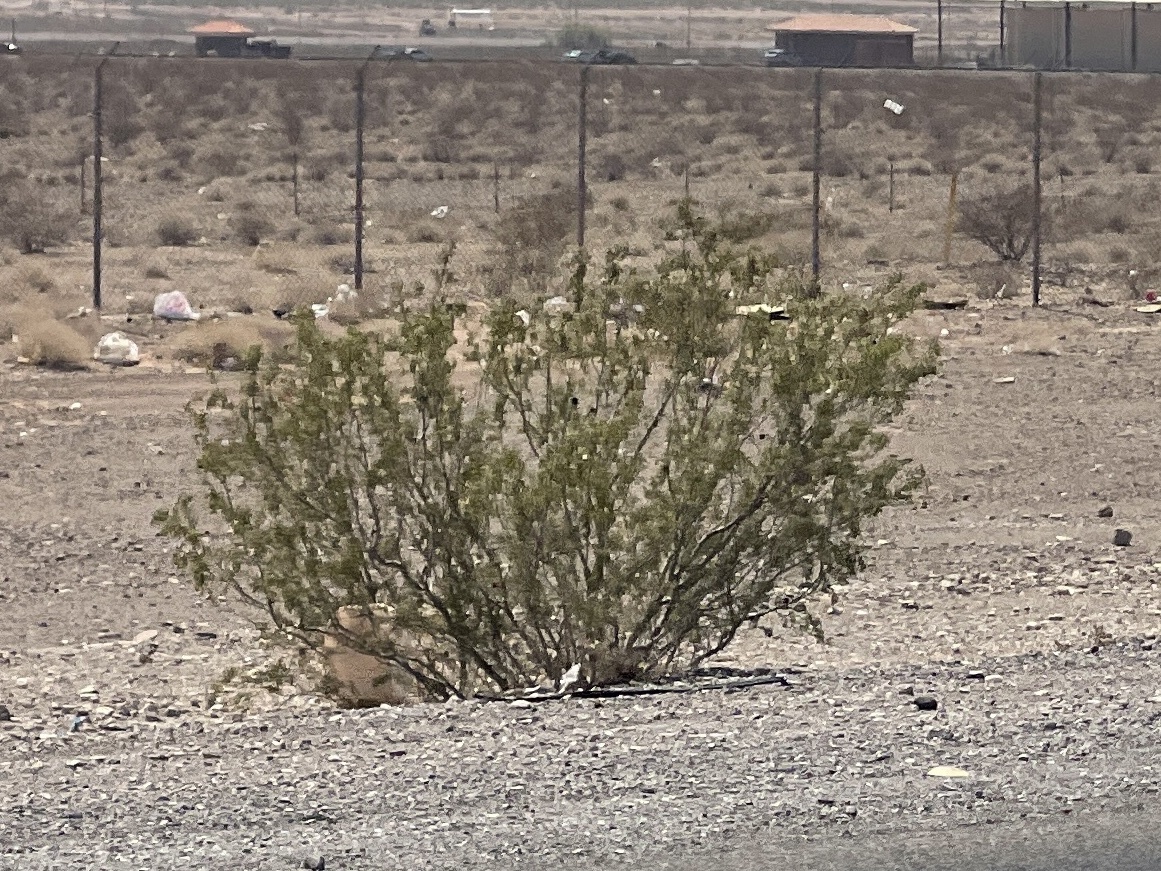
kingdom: Plantae
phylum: Tracheophyta
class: Magnoliopsida
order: Zygophyllales
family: Zygophyllaceae
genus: Larrea
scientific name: Larrea tridentata
